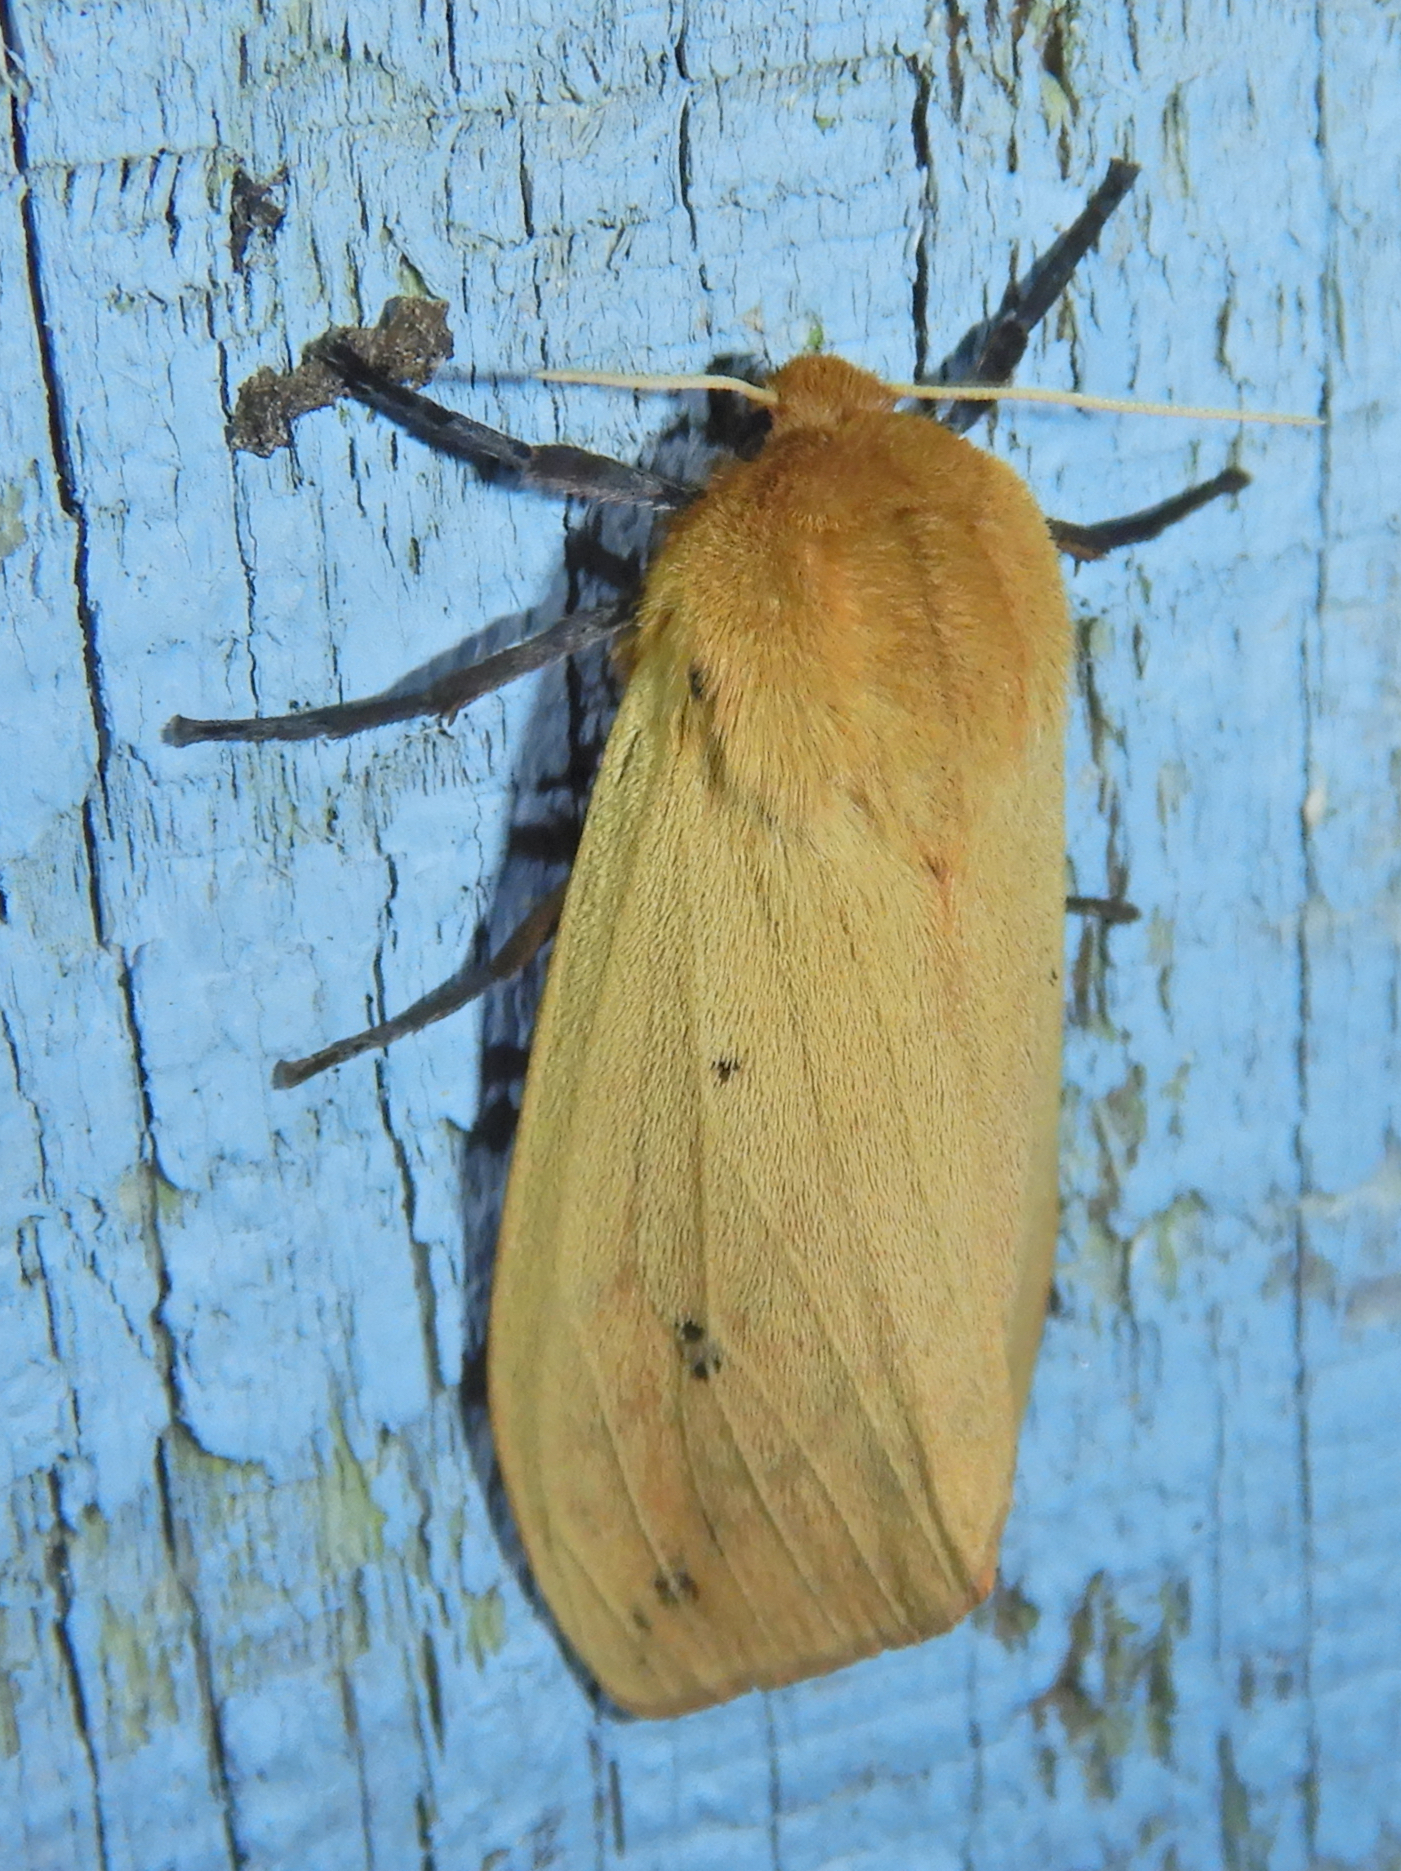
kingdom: Animalia
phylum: Arthropoda
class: Insecta
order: Lepidoptera
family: Erebidae
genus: Pyrrharctia
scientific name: Pyrrharctia isabella
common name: Isabella tiger moth
